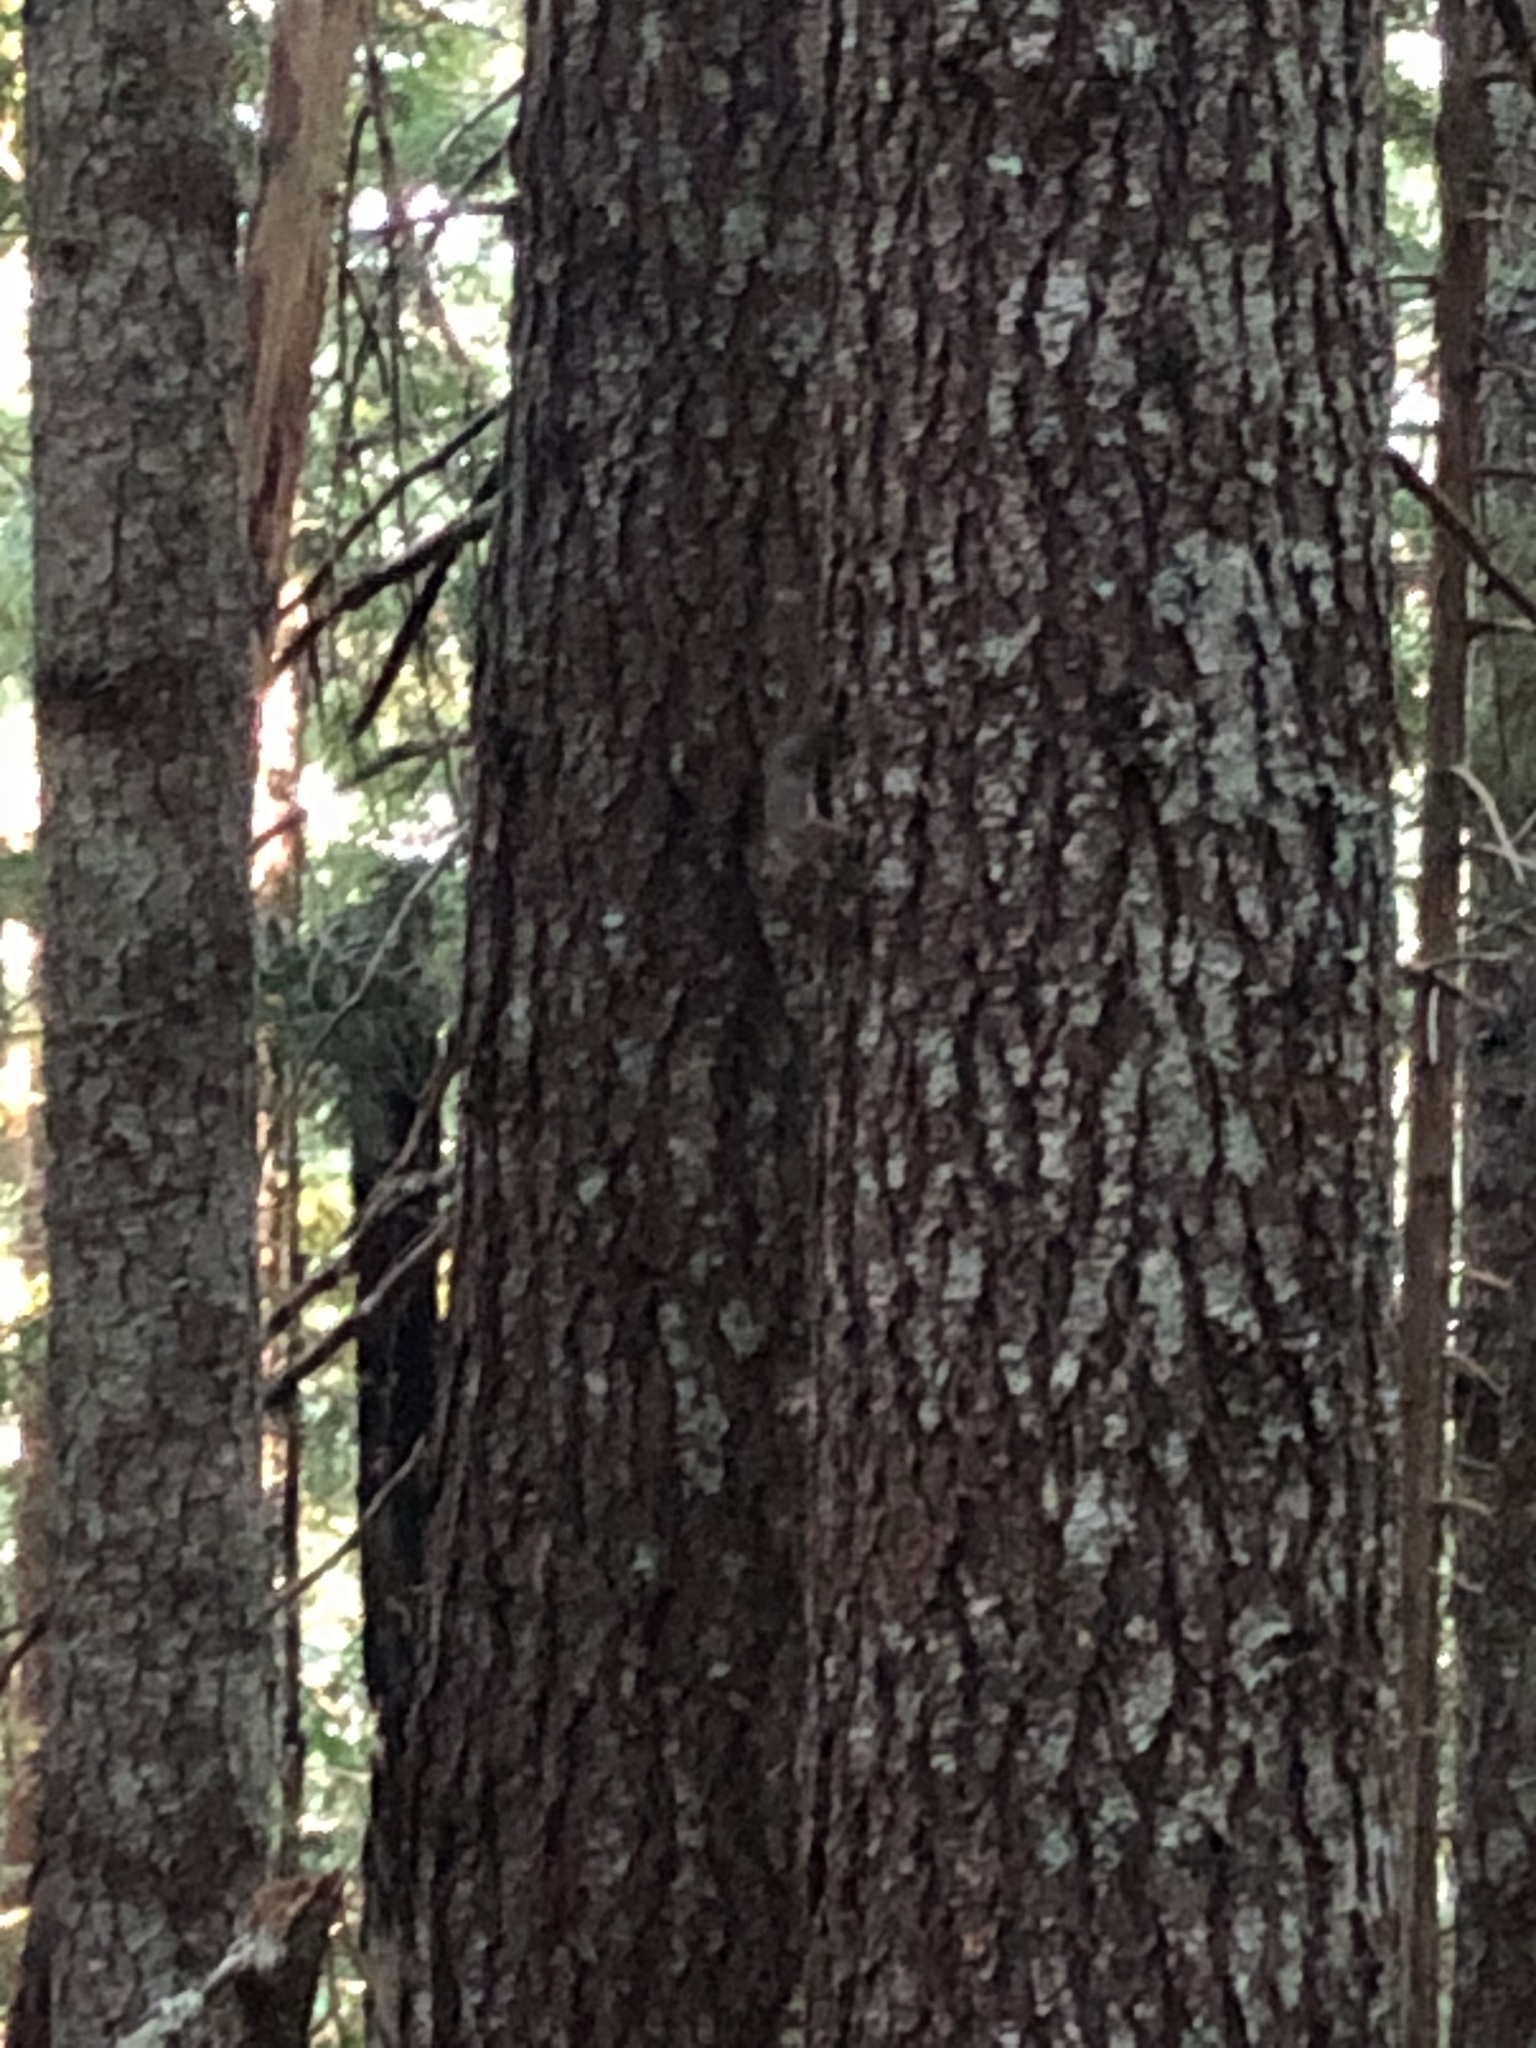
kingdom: Animalia
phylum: Chordata
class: Mammalia
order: Rodentia
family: Sciuridae
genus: Tamiasciurus
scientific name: Tamiasciurus douglasii
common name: Douglas's squirrel
